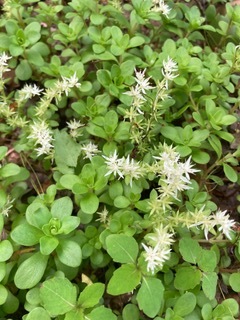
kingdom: Plantae
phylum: Tracheophyta
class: Magnoliopsida
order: Saxifragales
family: Crassulaceae
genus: Sedum
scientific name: Sedum ternatum
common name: Wild stonecrop
